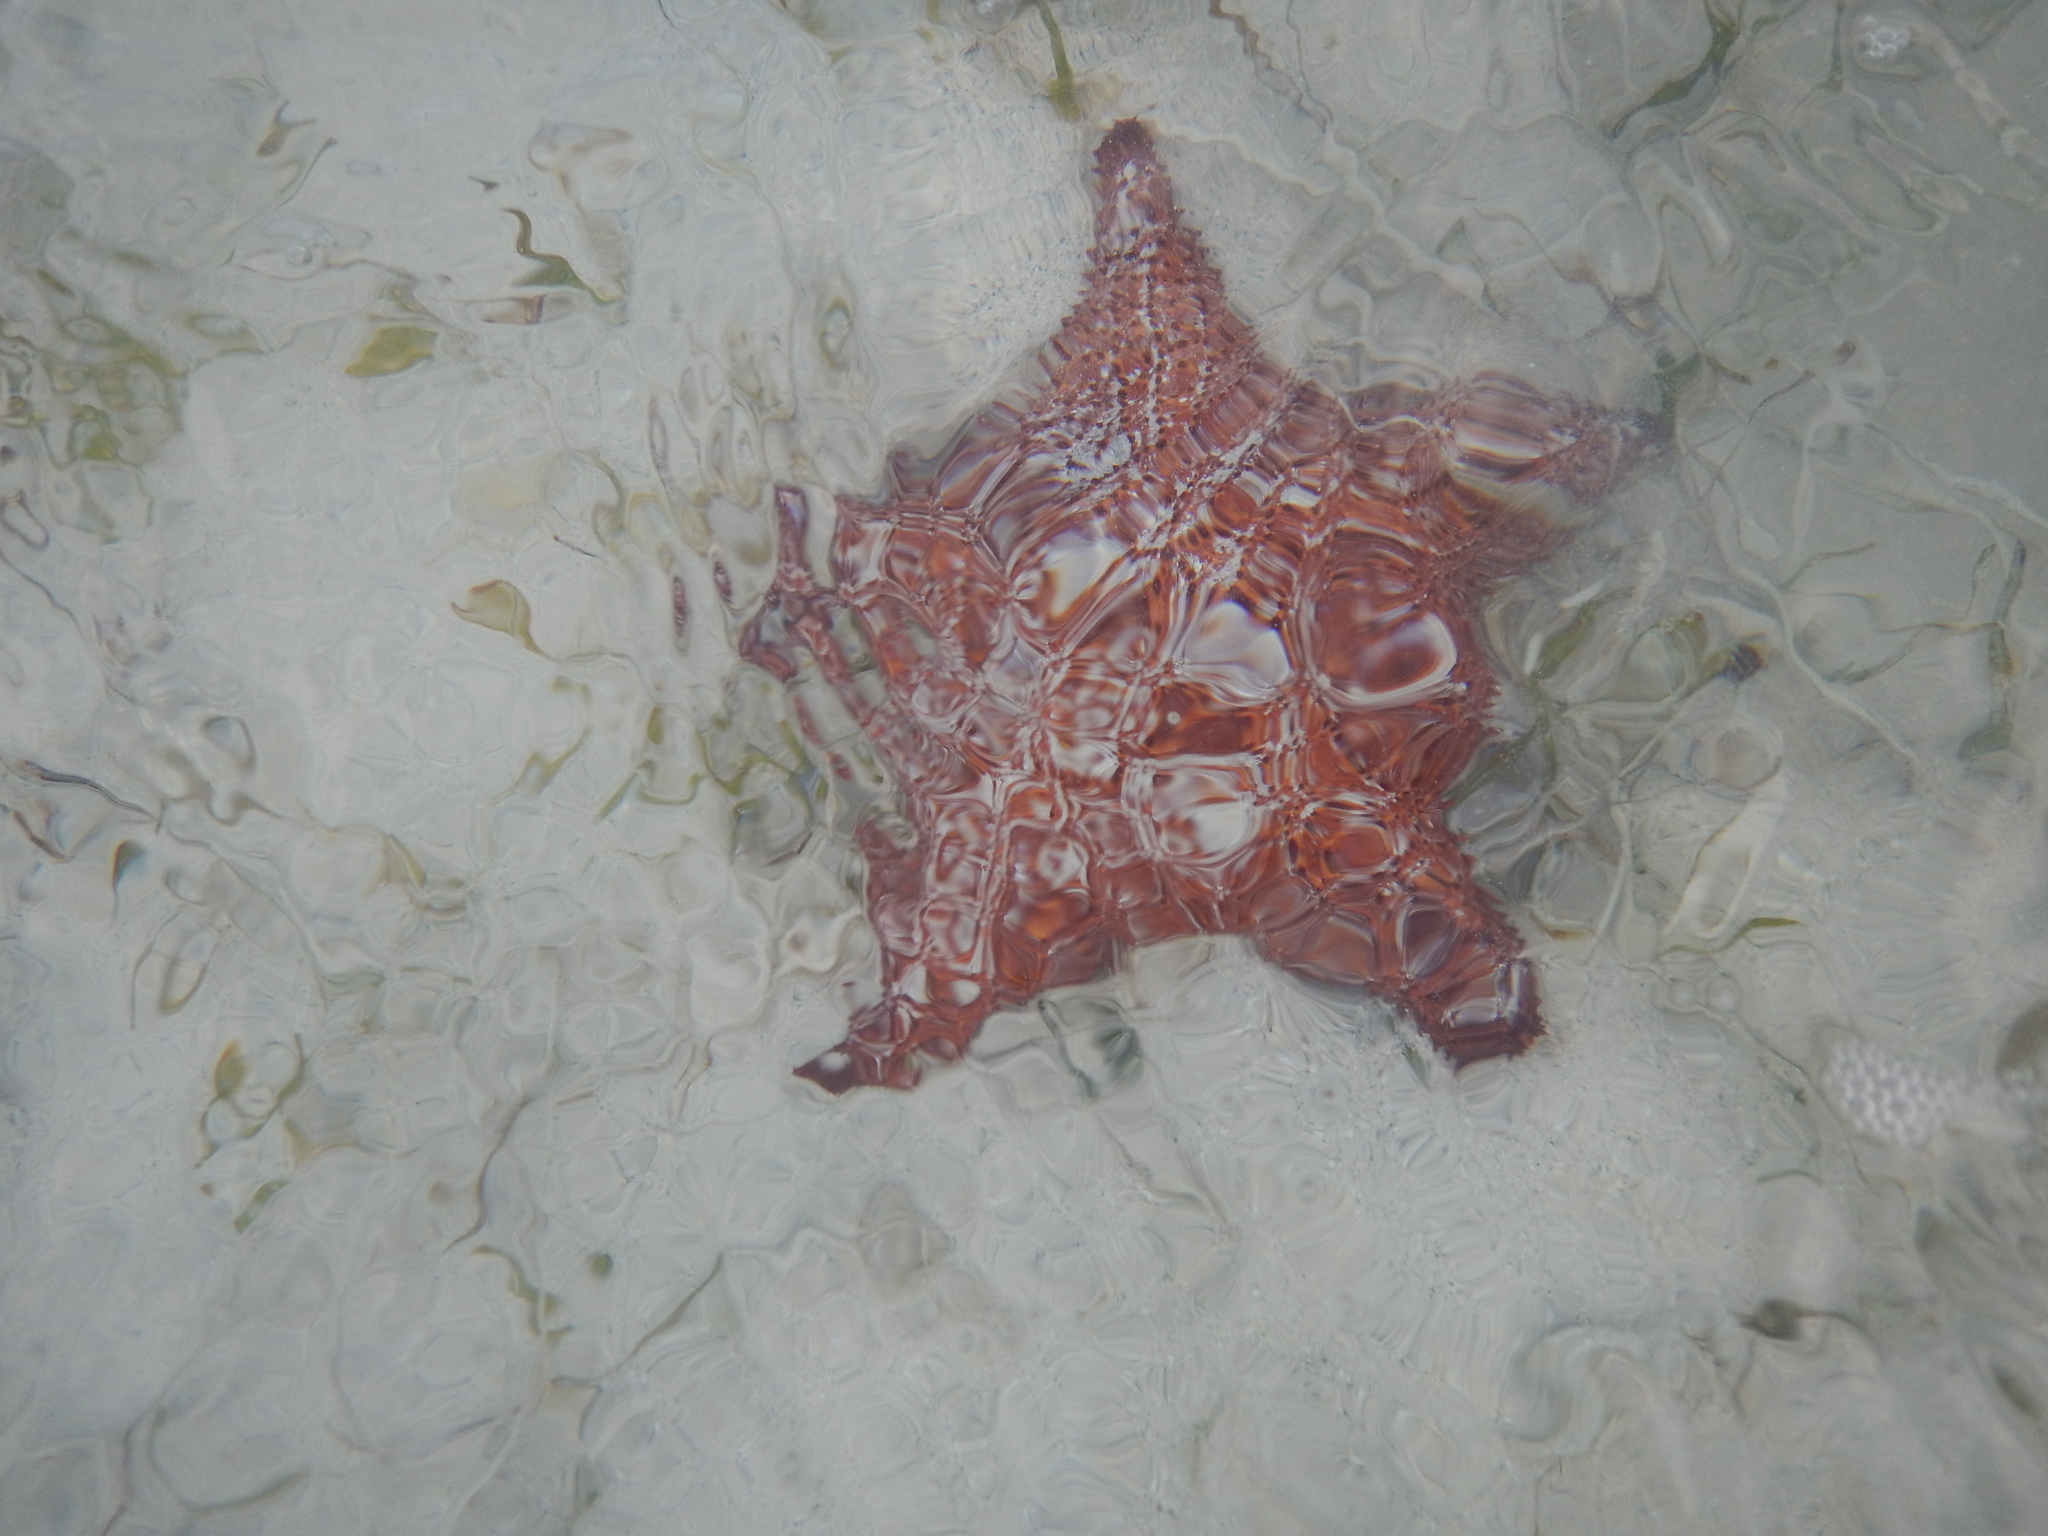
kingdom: Animalia
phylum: Echinodermata
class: Asteroidea
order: Valvatida
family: Oreasteridae
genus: Oreaster
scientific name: Oreaster reticulatus
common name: Cushion sea star
